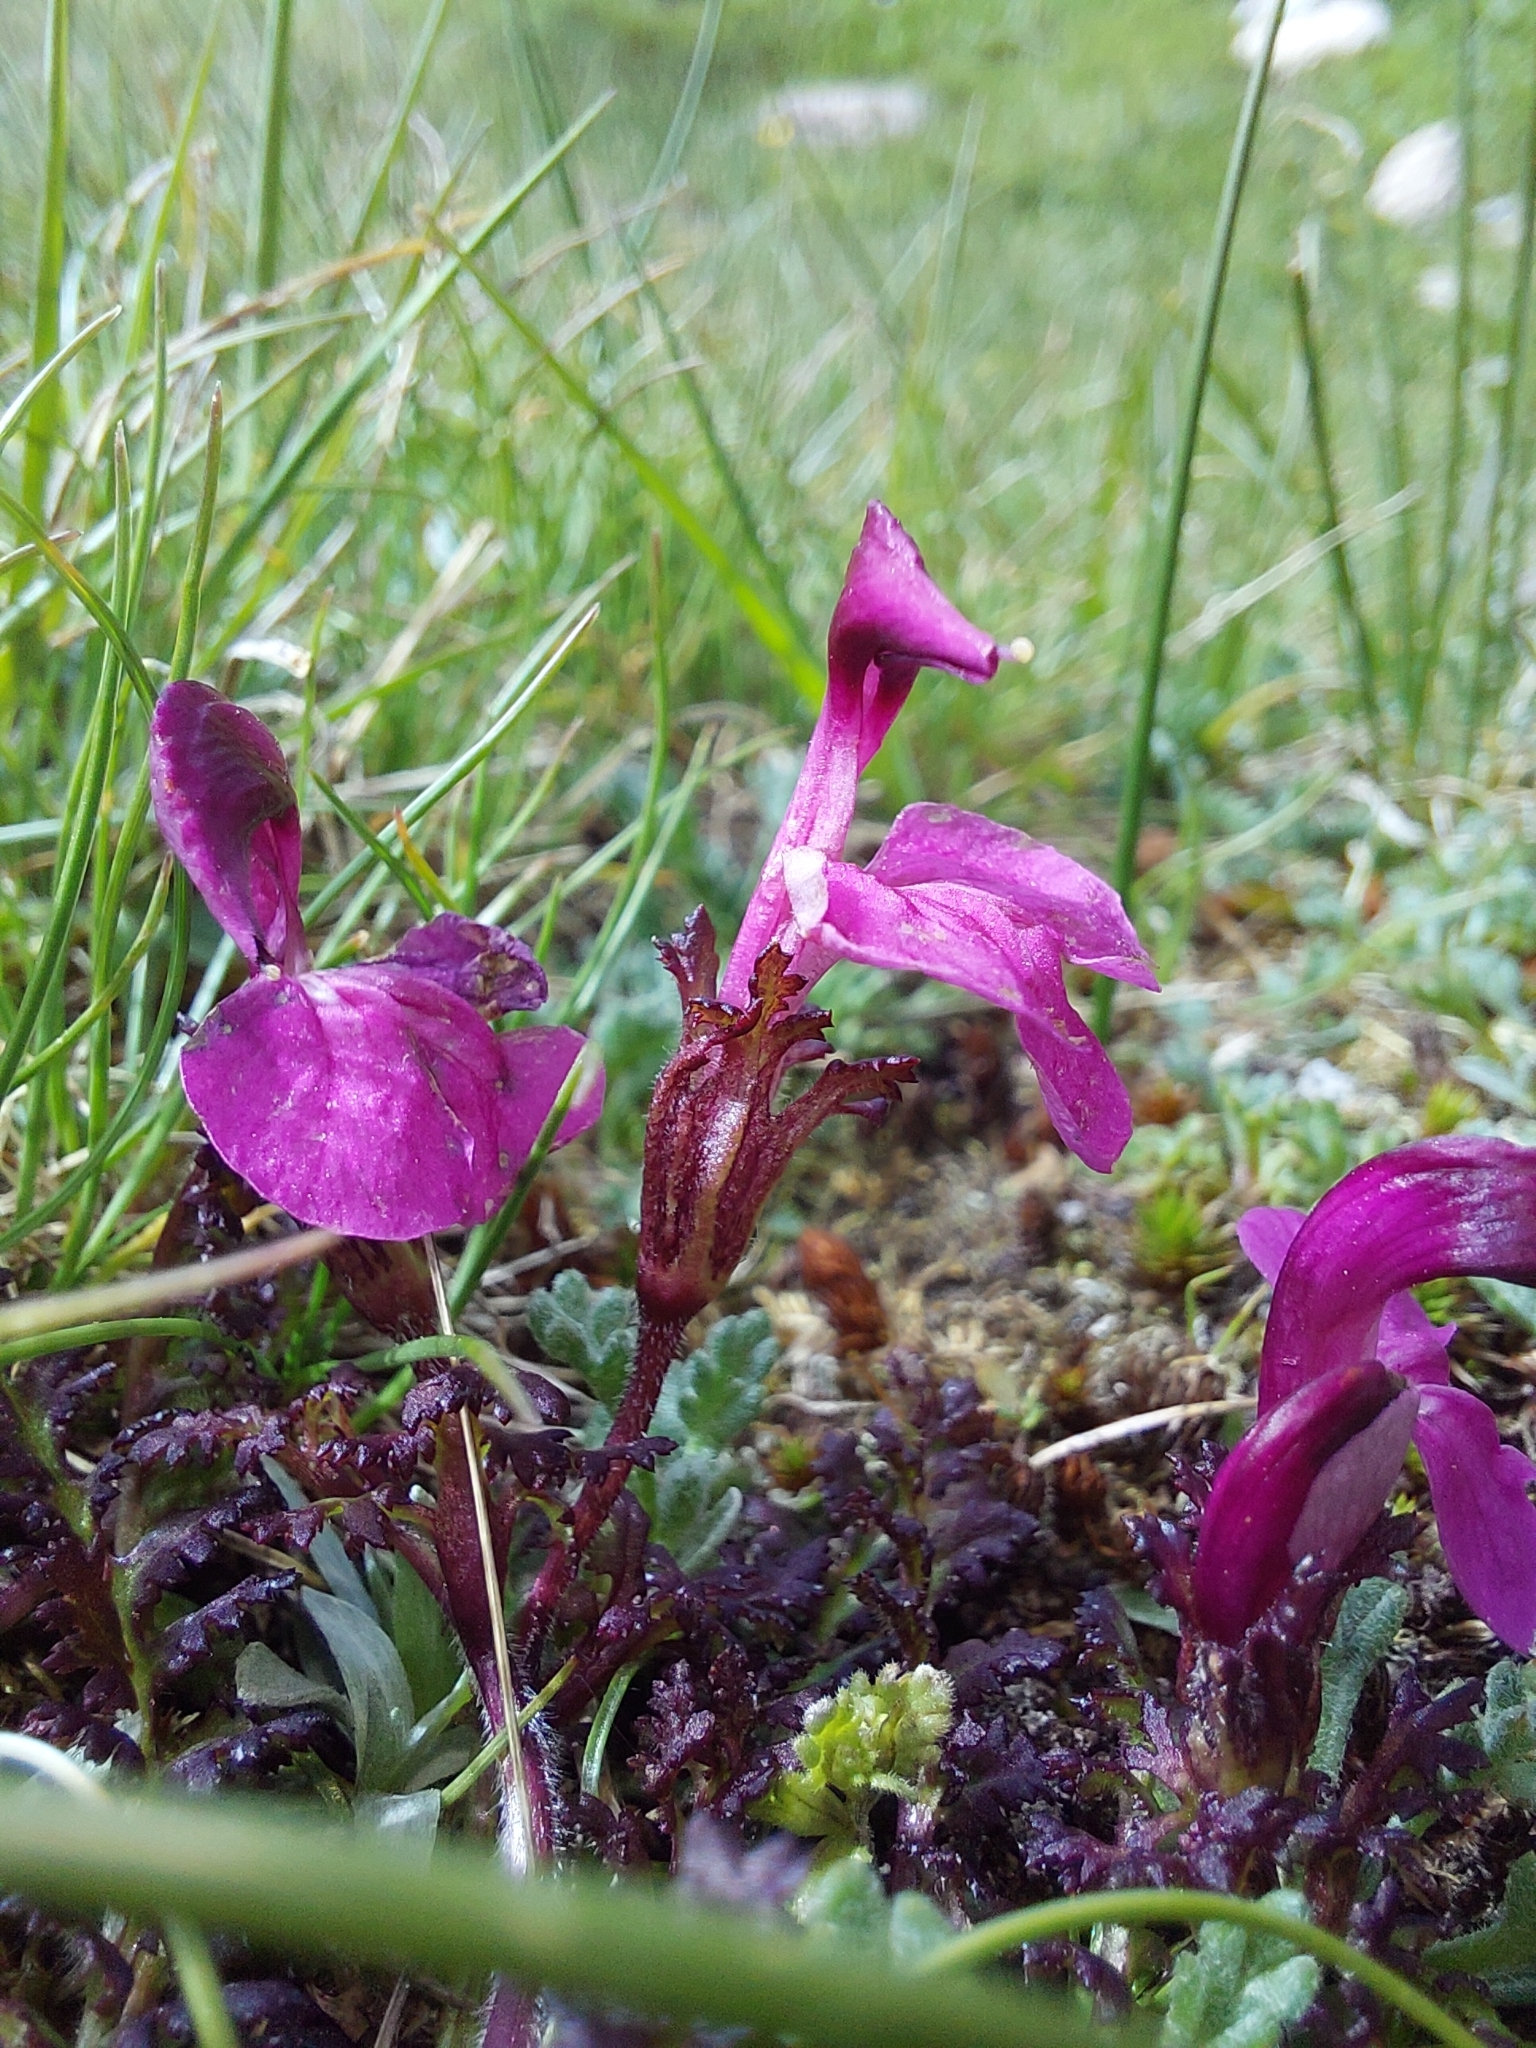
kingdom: Plantae
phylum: Tracheophyta
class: Magnoliopsida
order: Lamiales
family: Orobanchaceae
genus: Pedicularis
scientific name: Pedicularis kerneri
